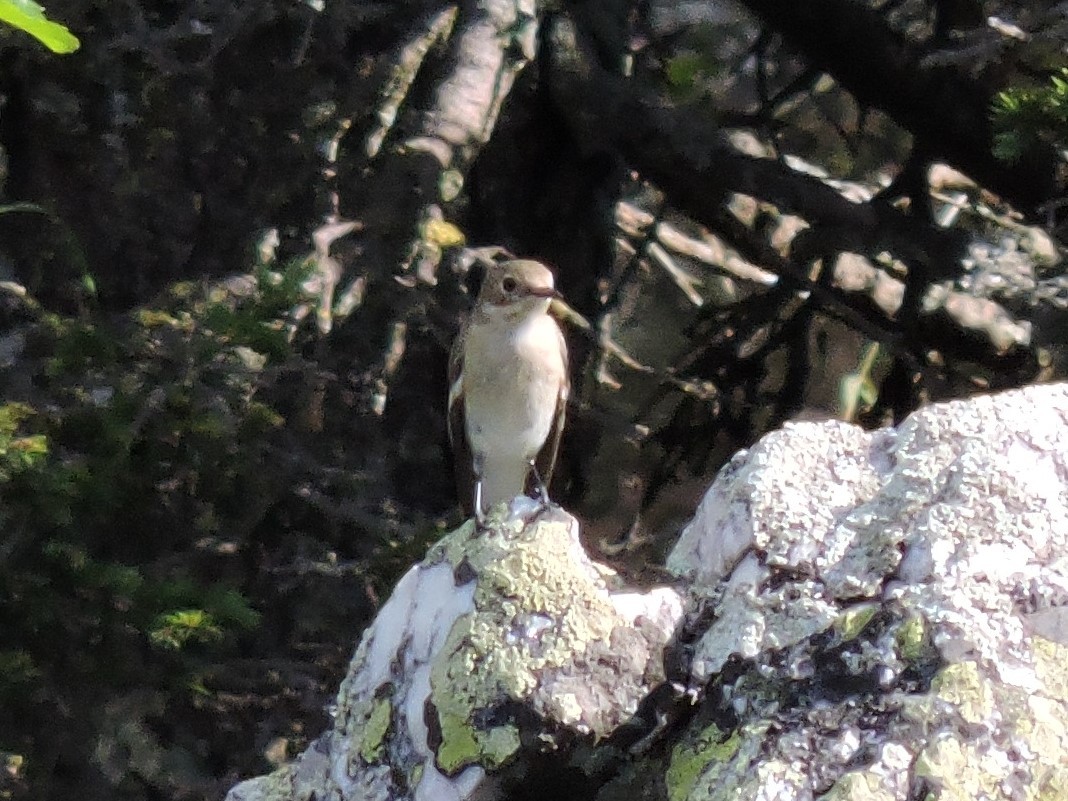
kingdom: Animalia
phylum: Chordata
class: Aves
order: Passeriformes
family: Muscicapidae
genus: Ficedula
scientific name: Ficedula hypoleuca
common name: European pied flycatcher
